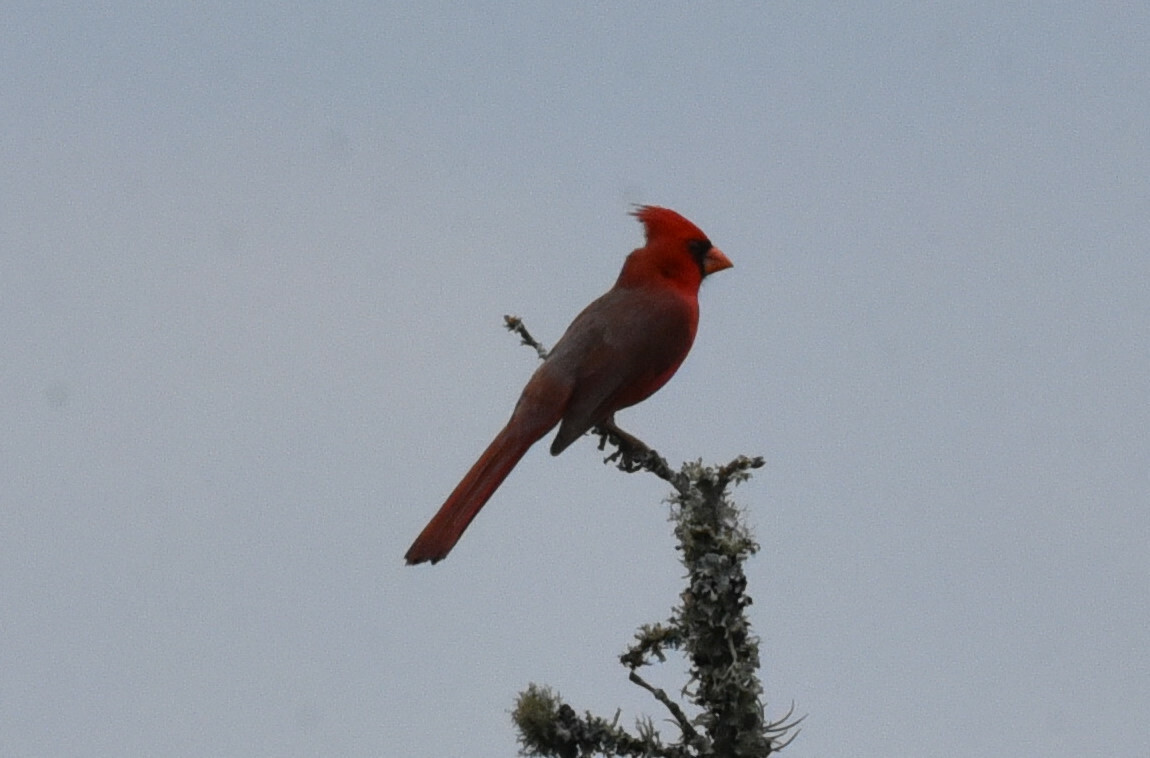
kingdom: Animalia
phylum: Chordata
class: Aves
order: Passeriformes
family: Cardinalidae
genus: Cardinalis
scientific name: Cardinalis cardinalis
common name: Northern cardinal
